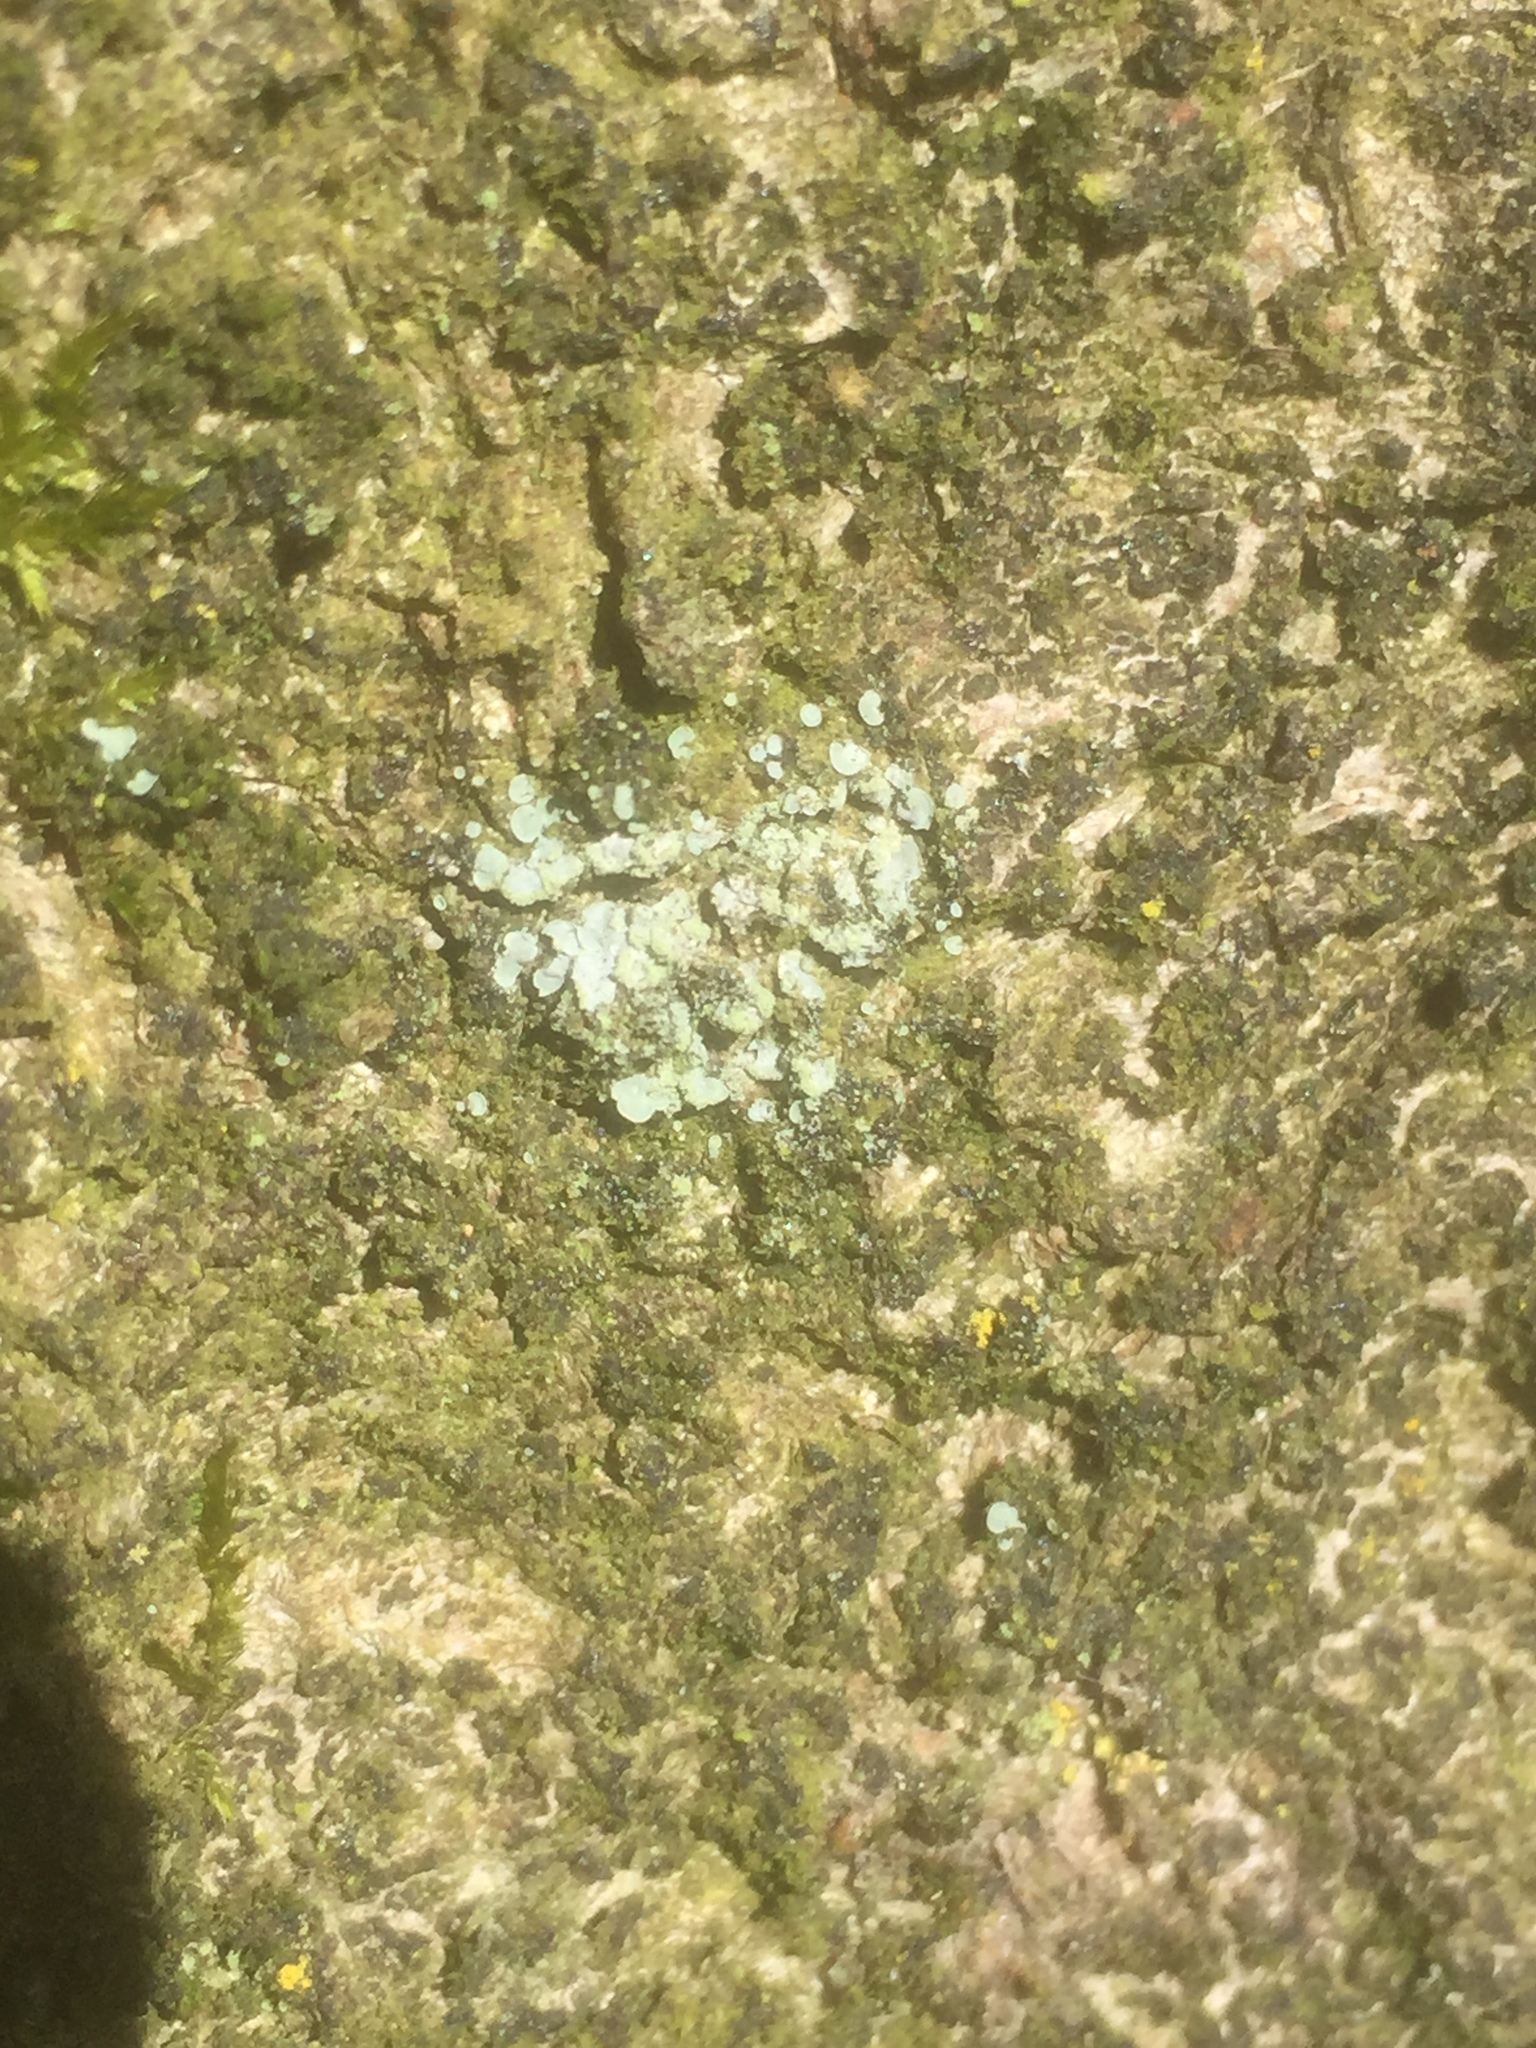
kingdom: Fungi
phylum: Ascomycota
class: Eurotiomycetes
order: Verrucariales
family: Verrucariaceae
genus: Normandina
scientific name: Normandina pulchella
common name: Elf ears lichen
